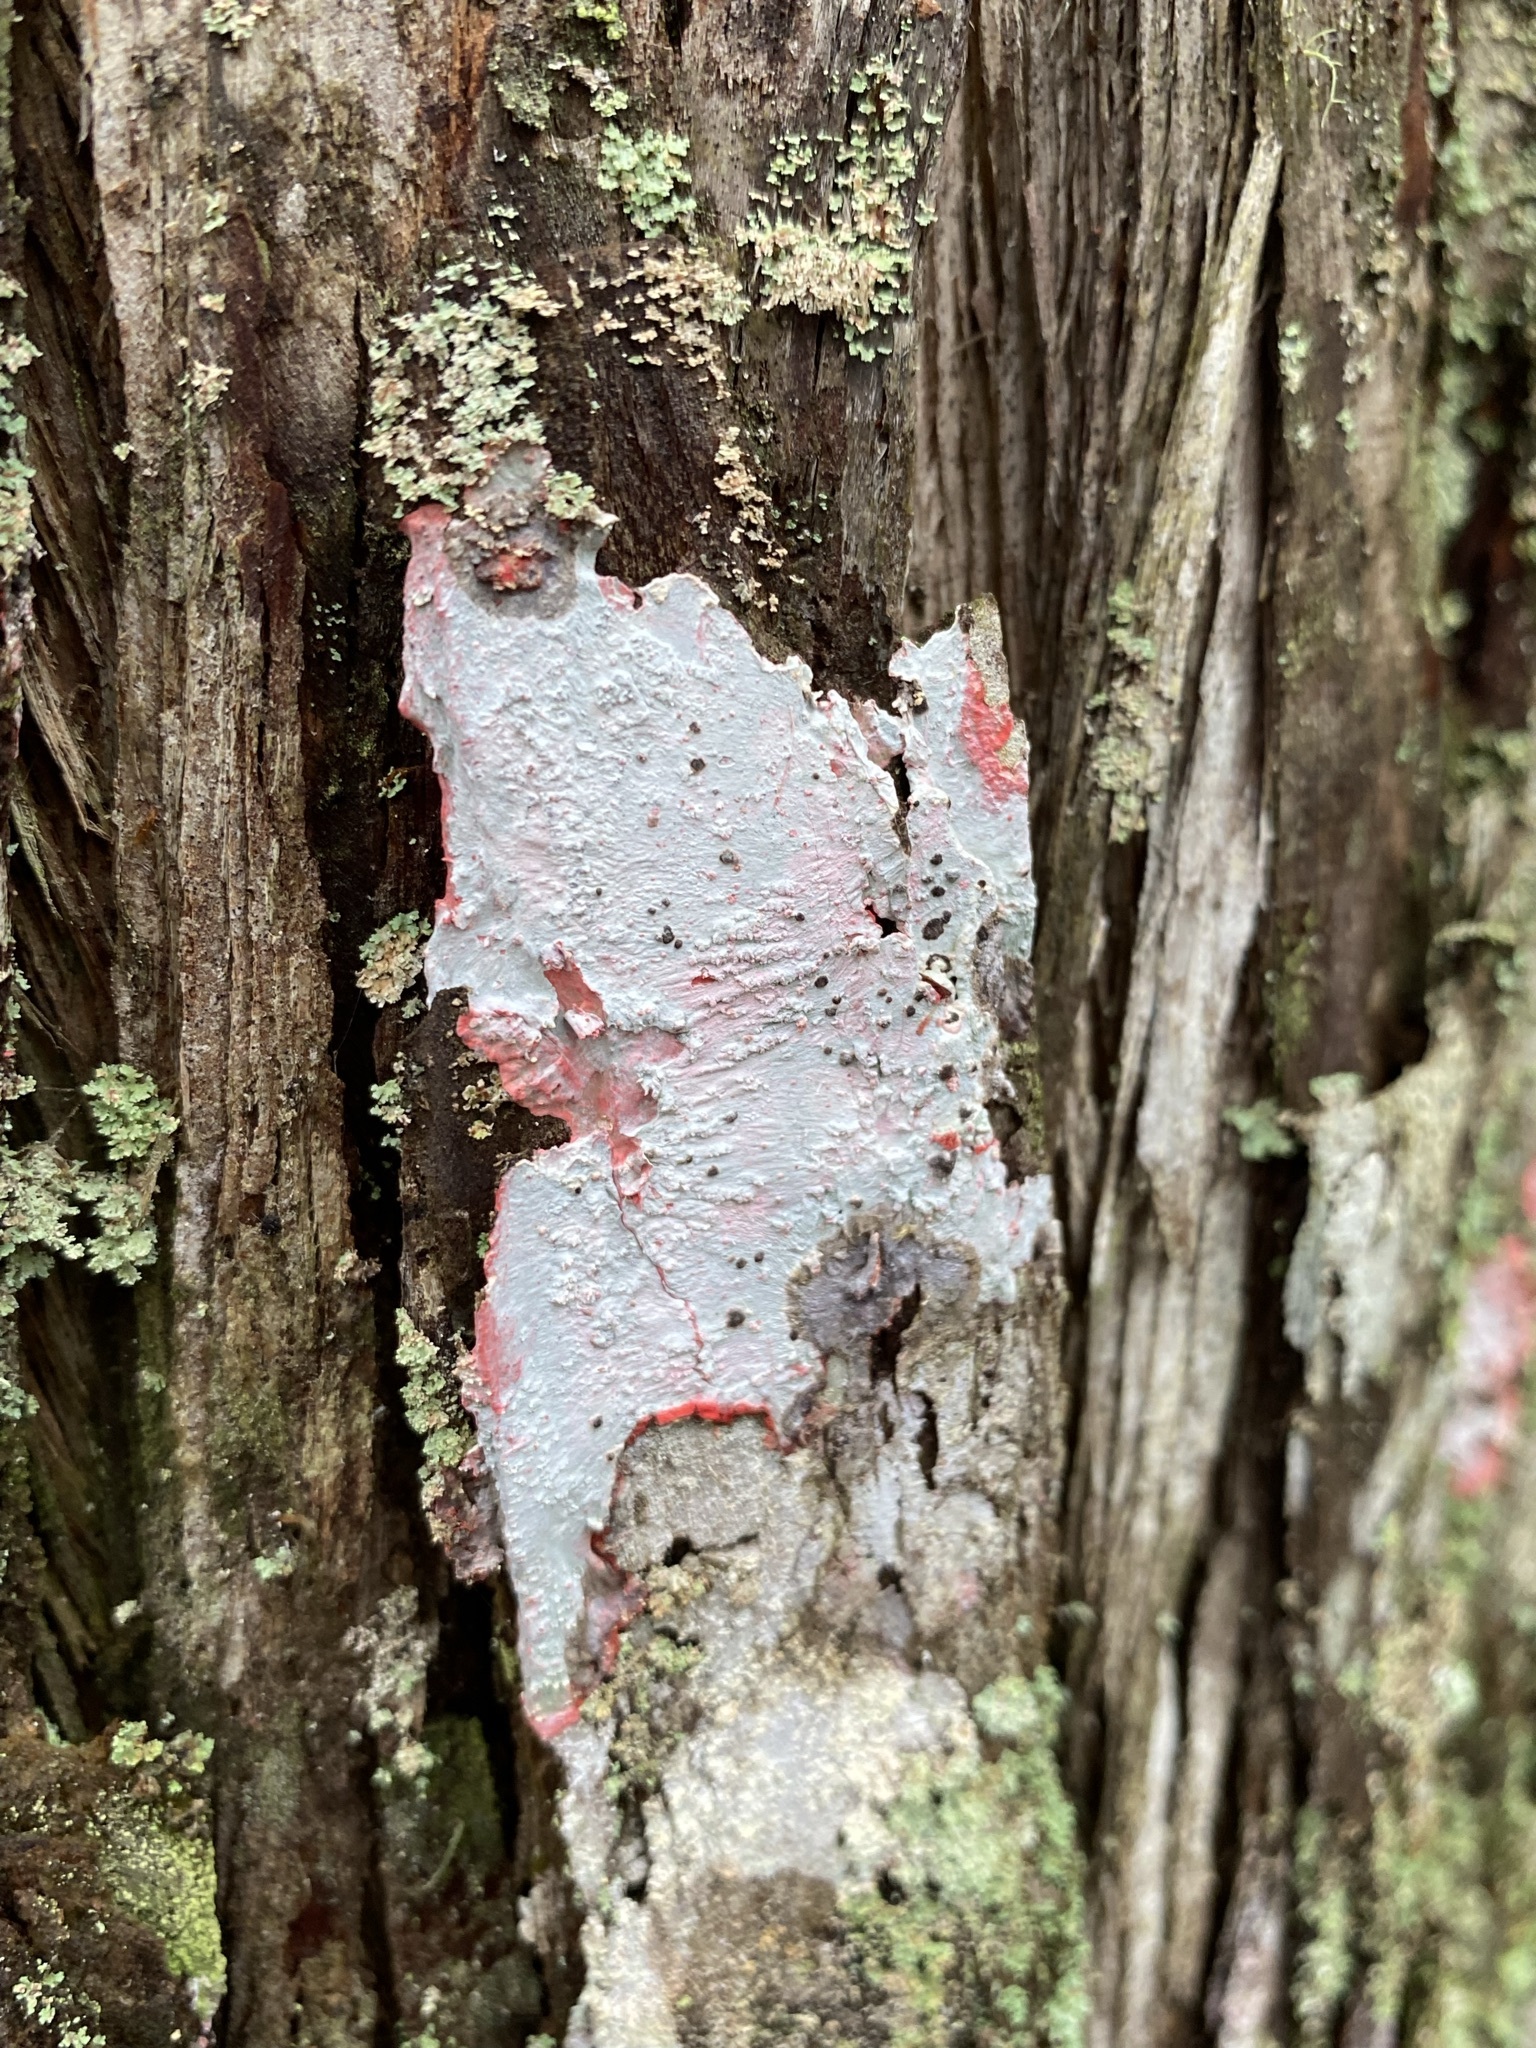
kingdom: Fungi
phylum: Ascomycota
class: Arthoniomycetes
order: Arthoniales
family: Arthoniaceae
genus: Herpothallon
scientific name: Herpothallon rubrocinctum
